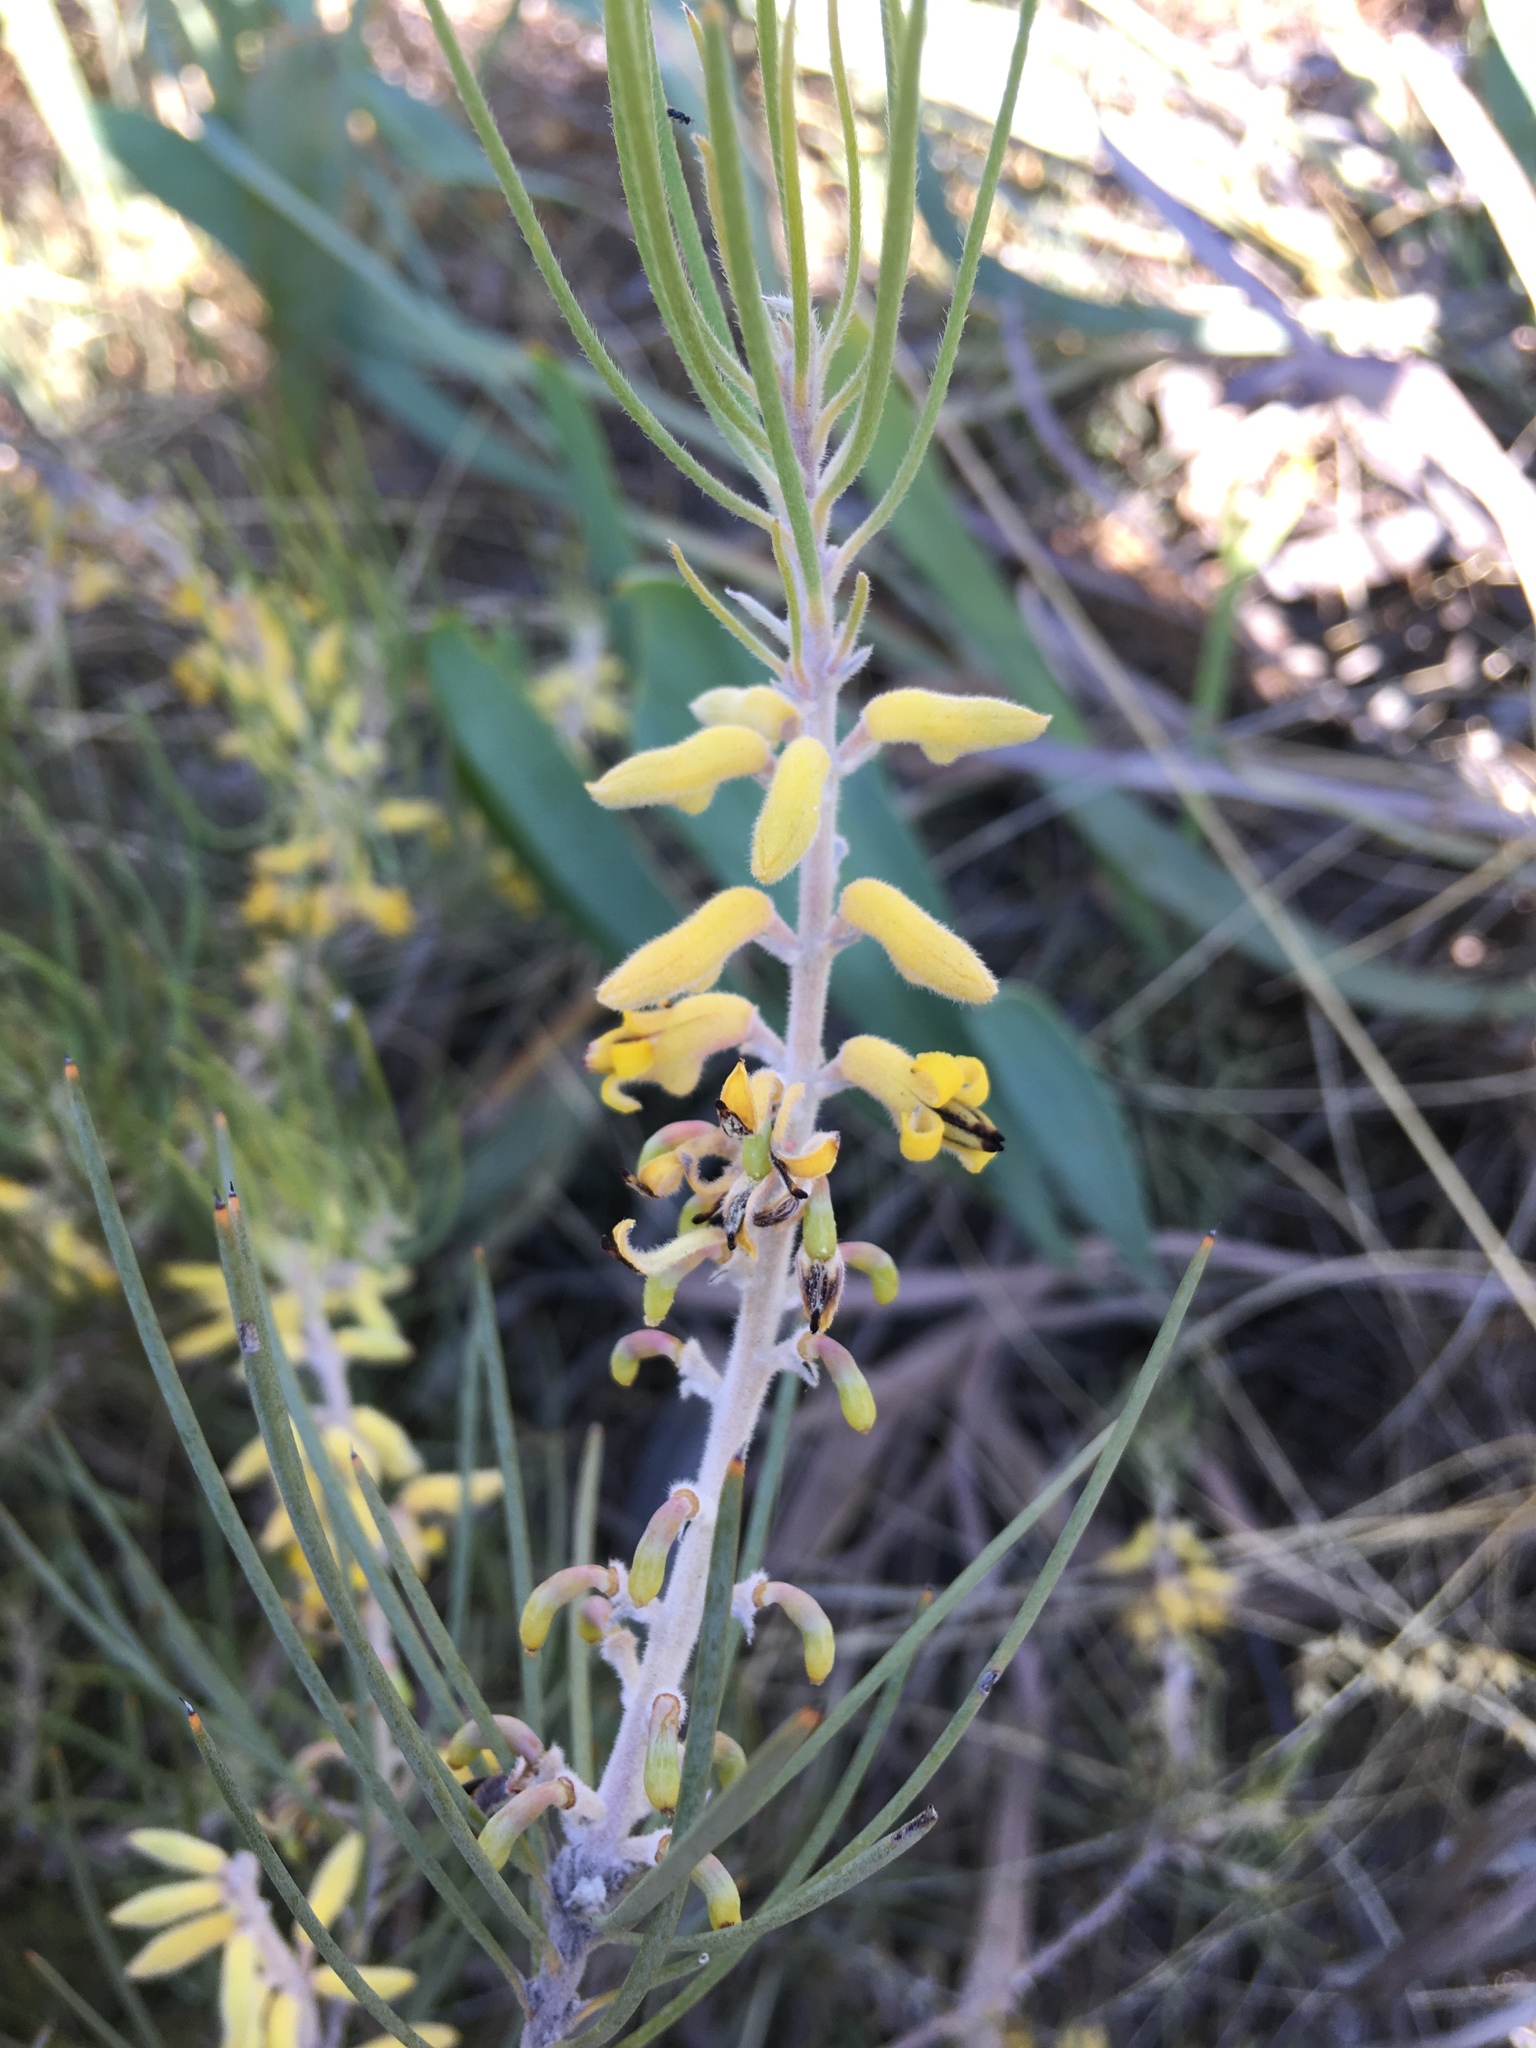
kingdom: Plantae
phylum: Tracheophyta
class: Magnoliopsida
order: Proteales
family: Proteaceae
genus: Persoonia
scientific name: Persoonia saccata
